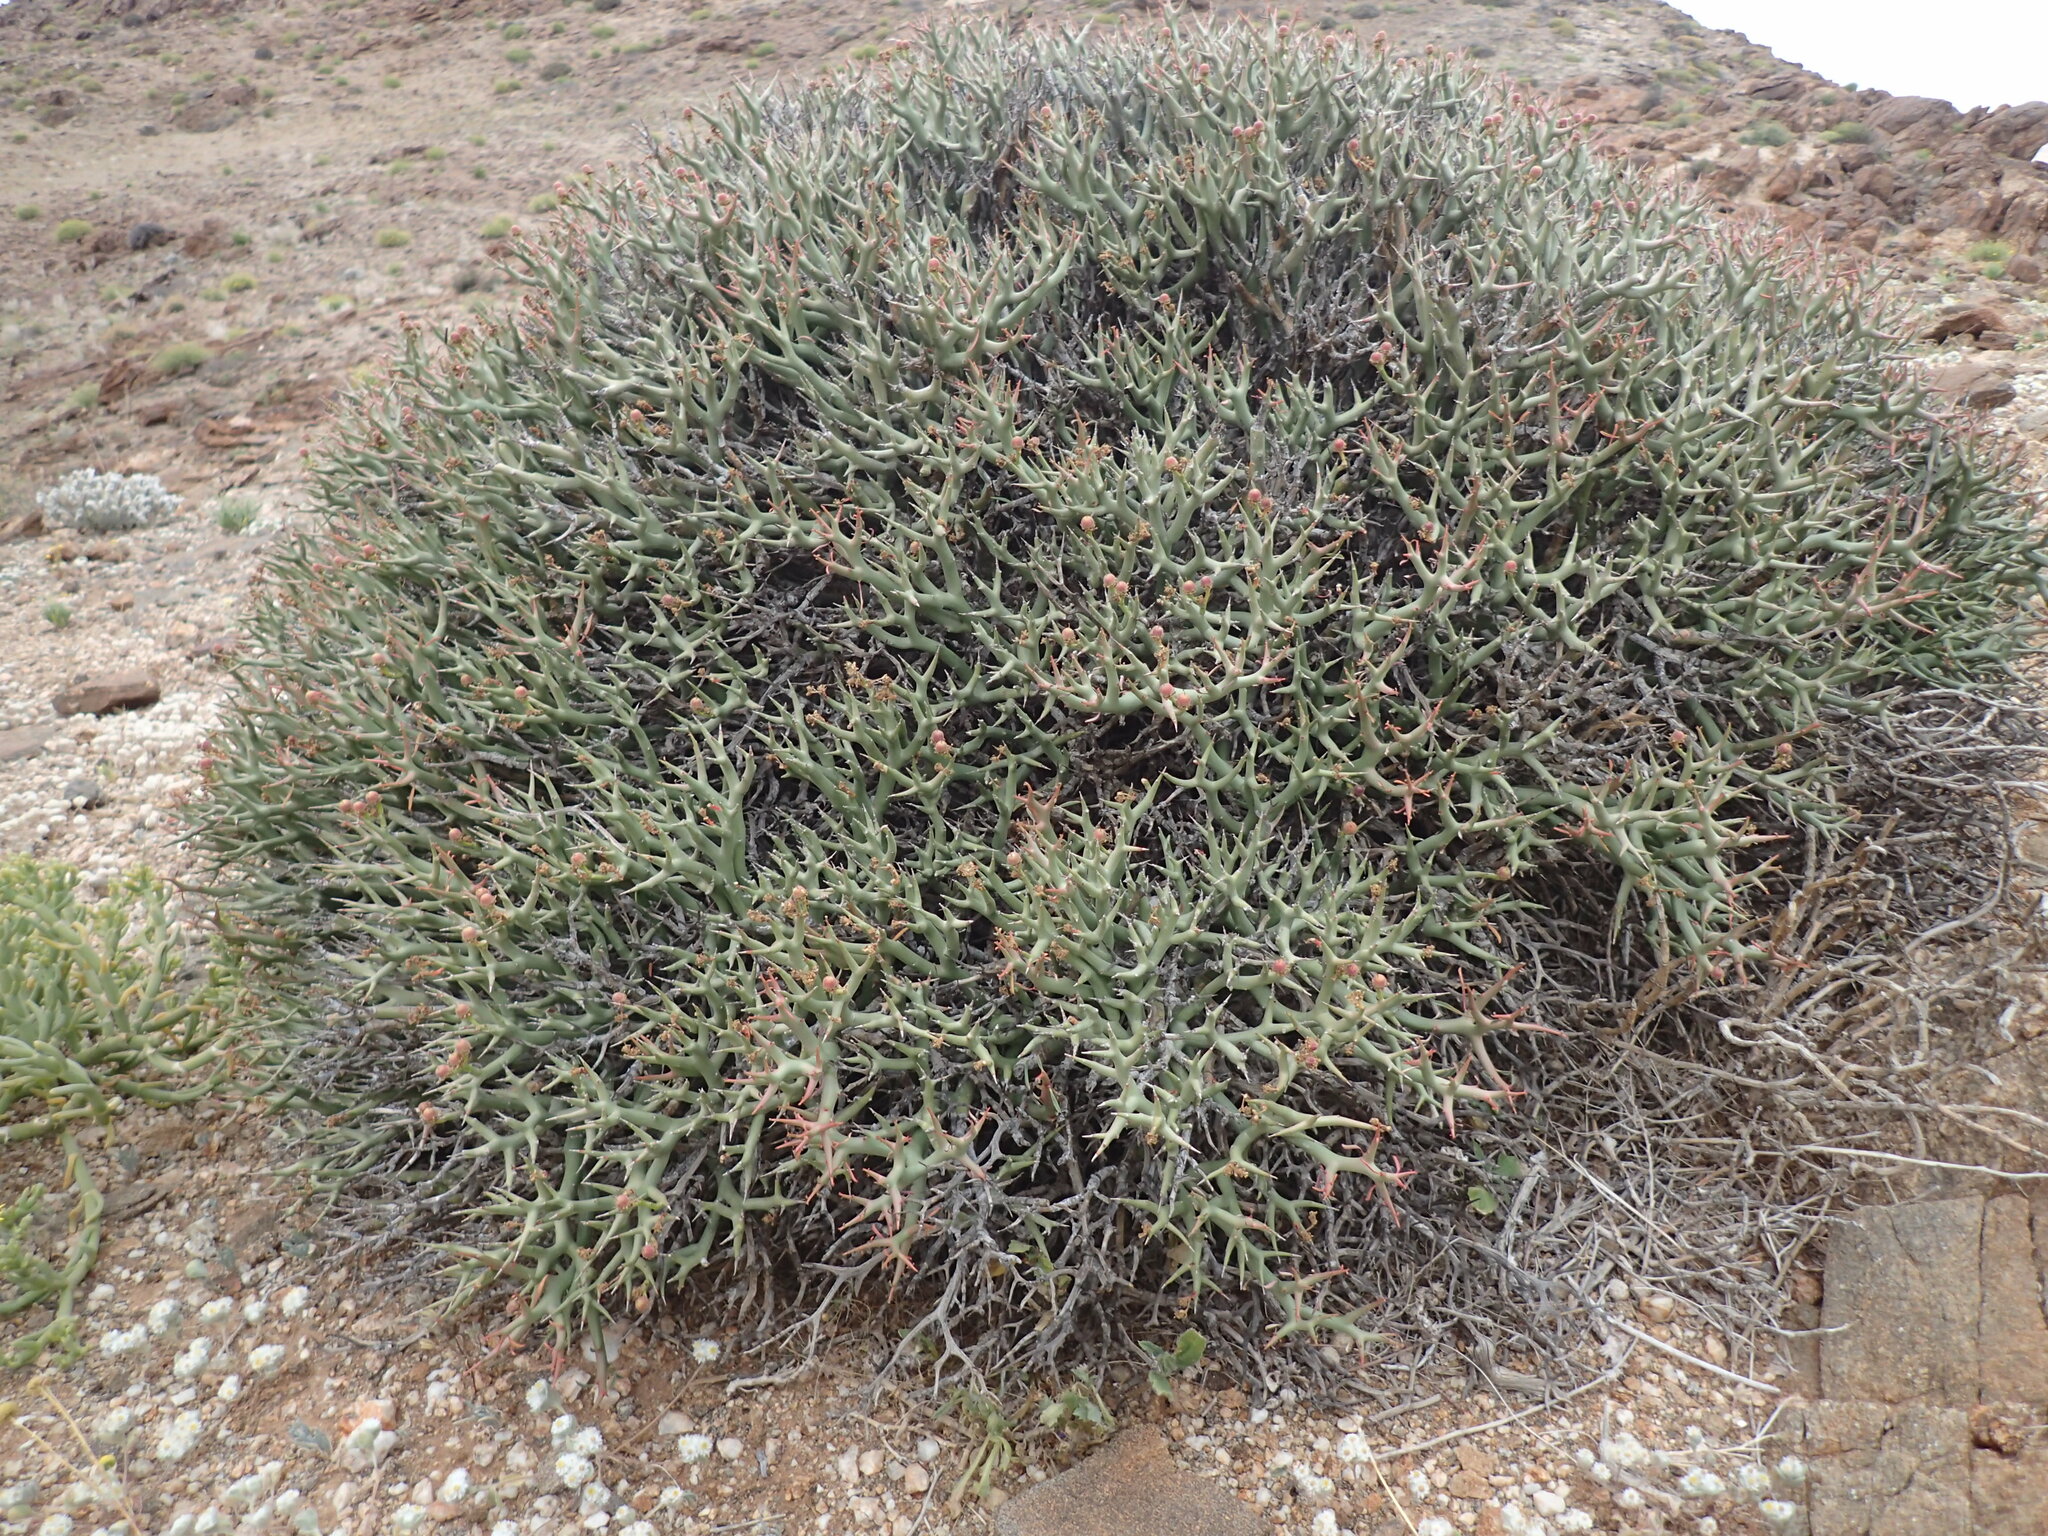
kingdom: Plantae
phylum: Tracheophyta
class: Magnoliopsida
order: Malpighiales
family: Euphorbiaceae
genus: Euphorbia
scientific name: Euphorbia lignosa
